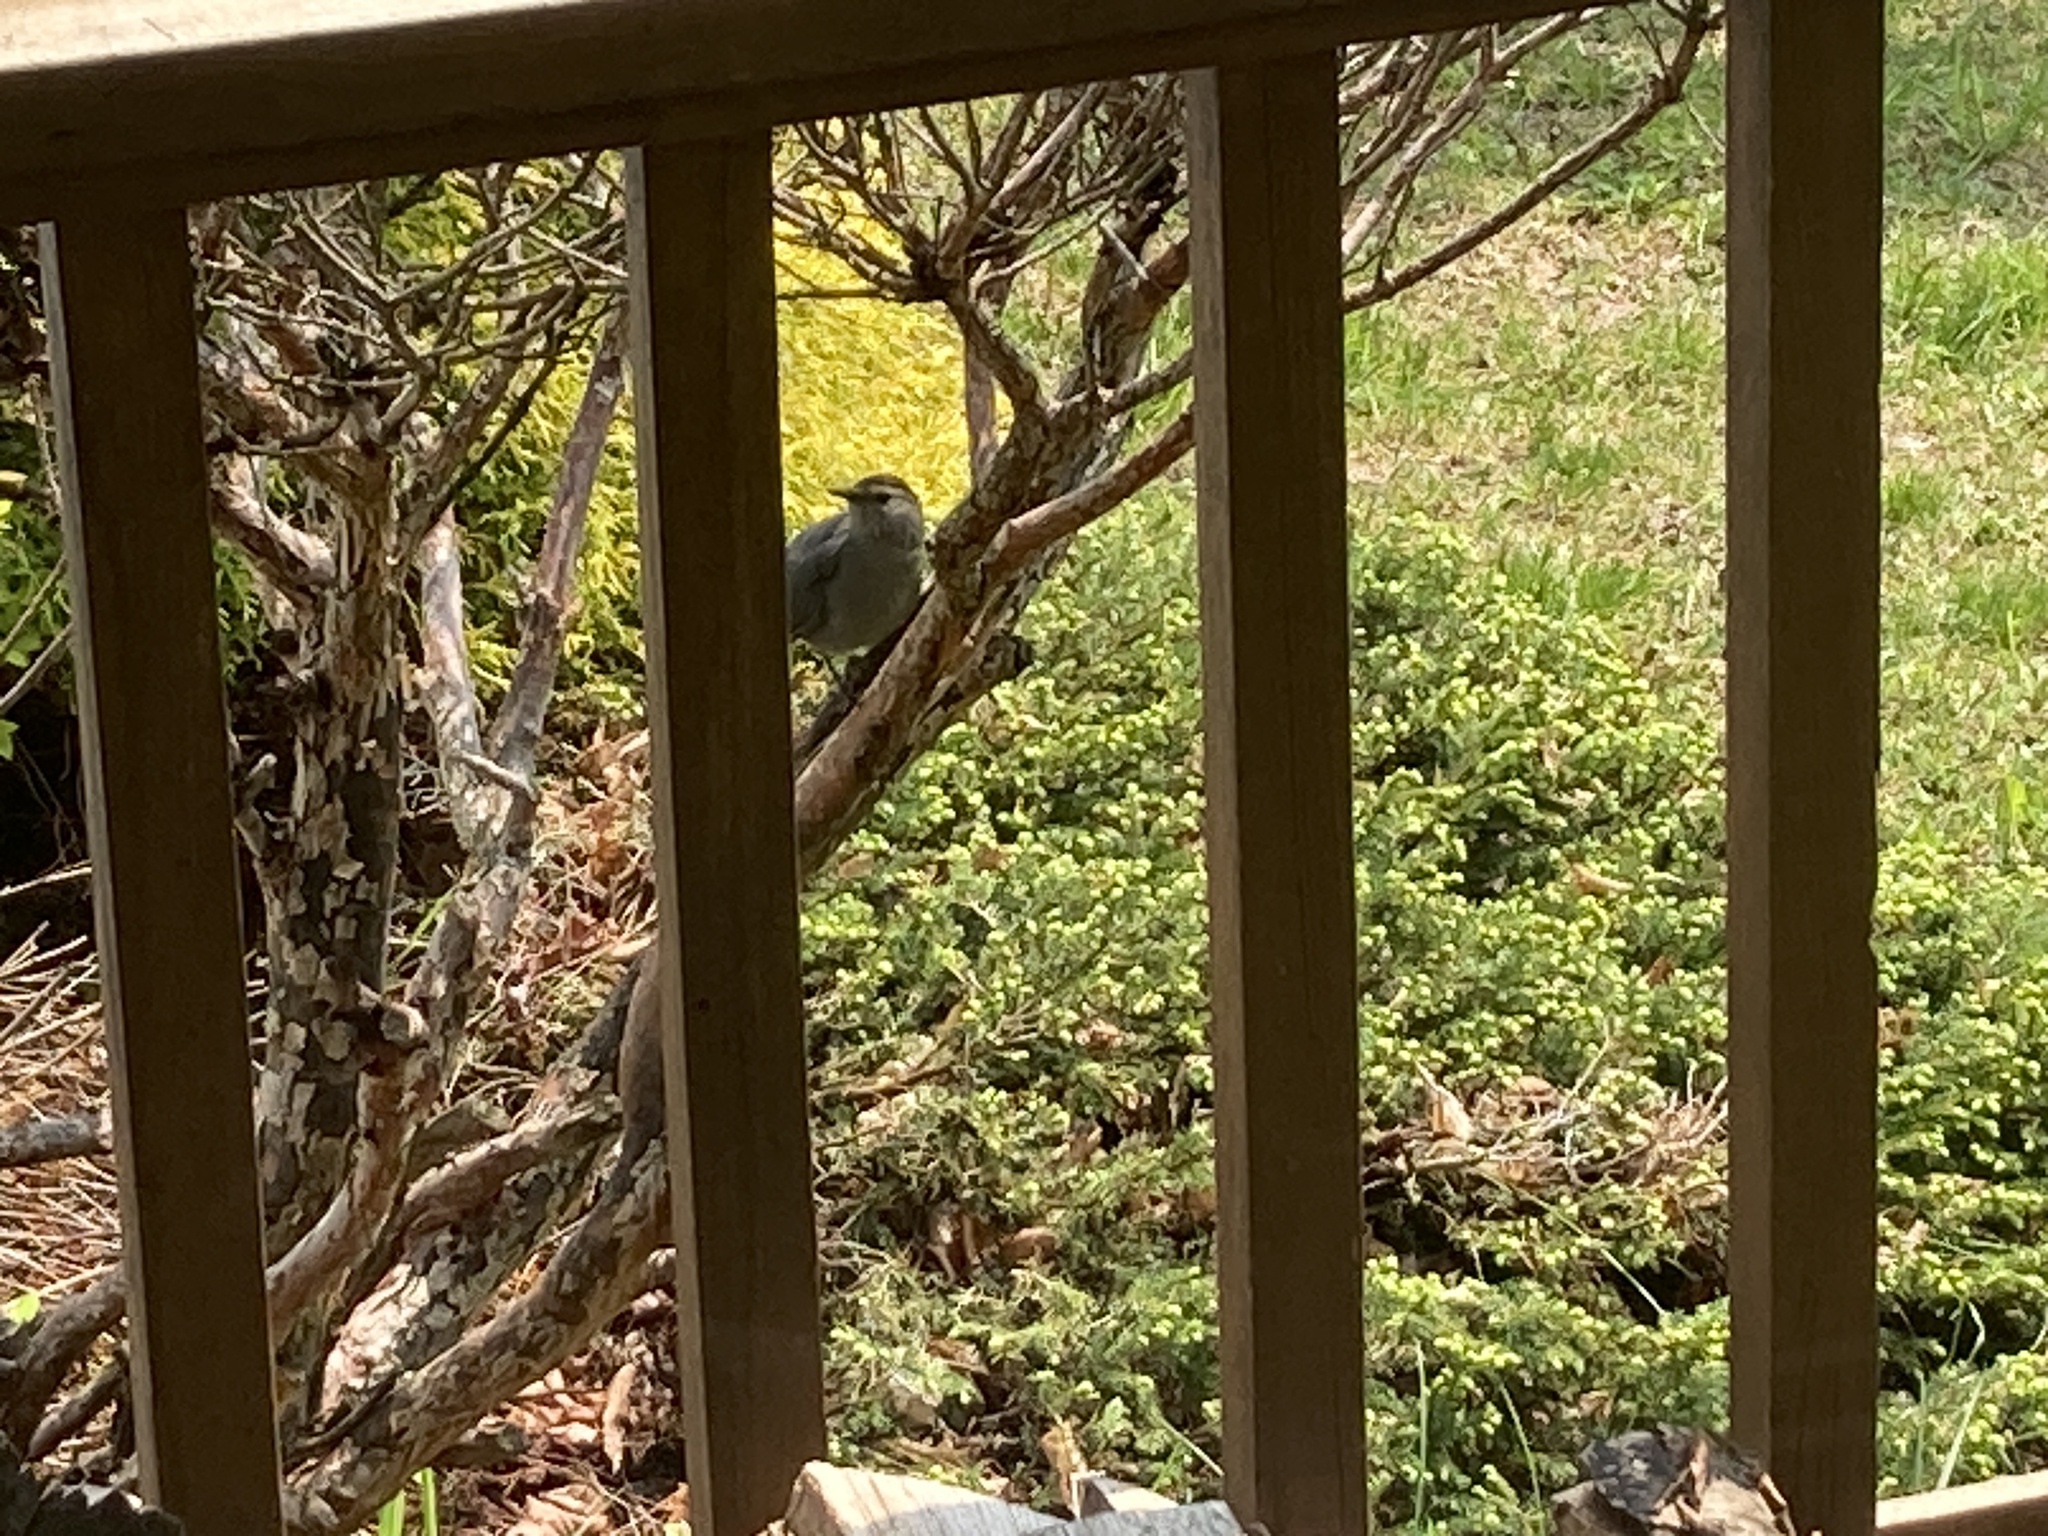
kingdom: Animalia
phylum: Chordata
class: Aves
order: Passeriformes
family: Mimidae
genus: Dumetella
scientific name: Dumetella carolinensis
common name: Gray catbird
